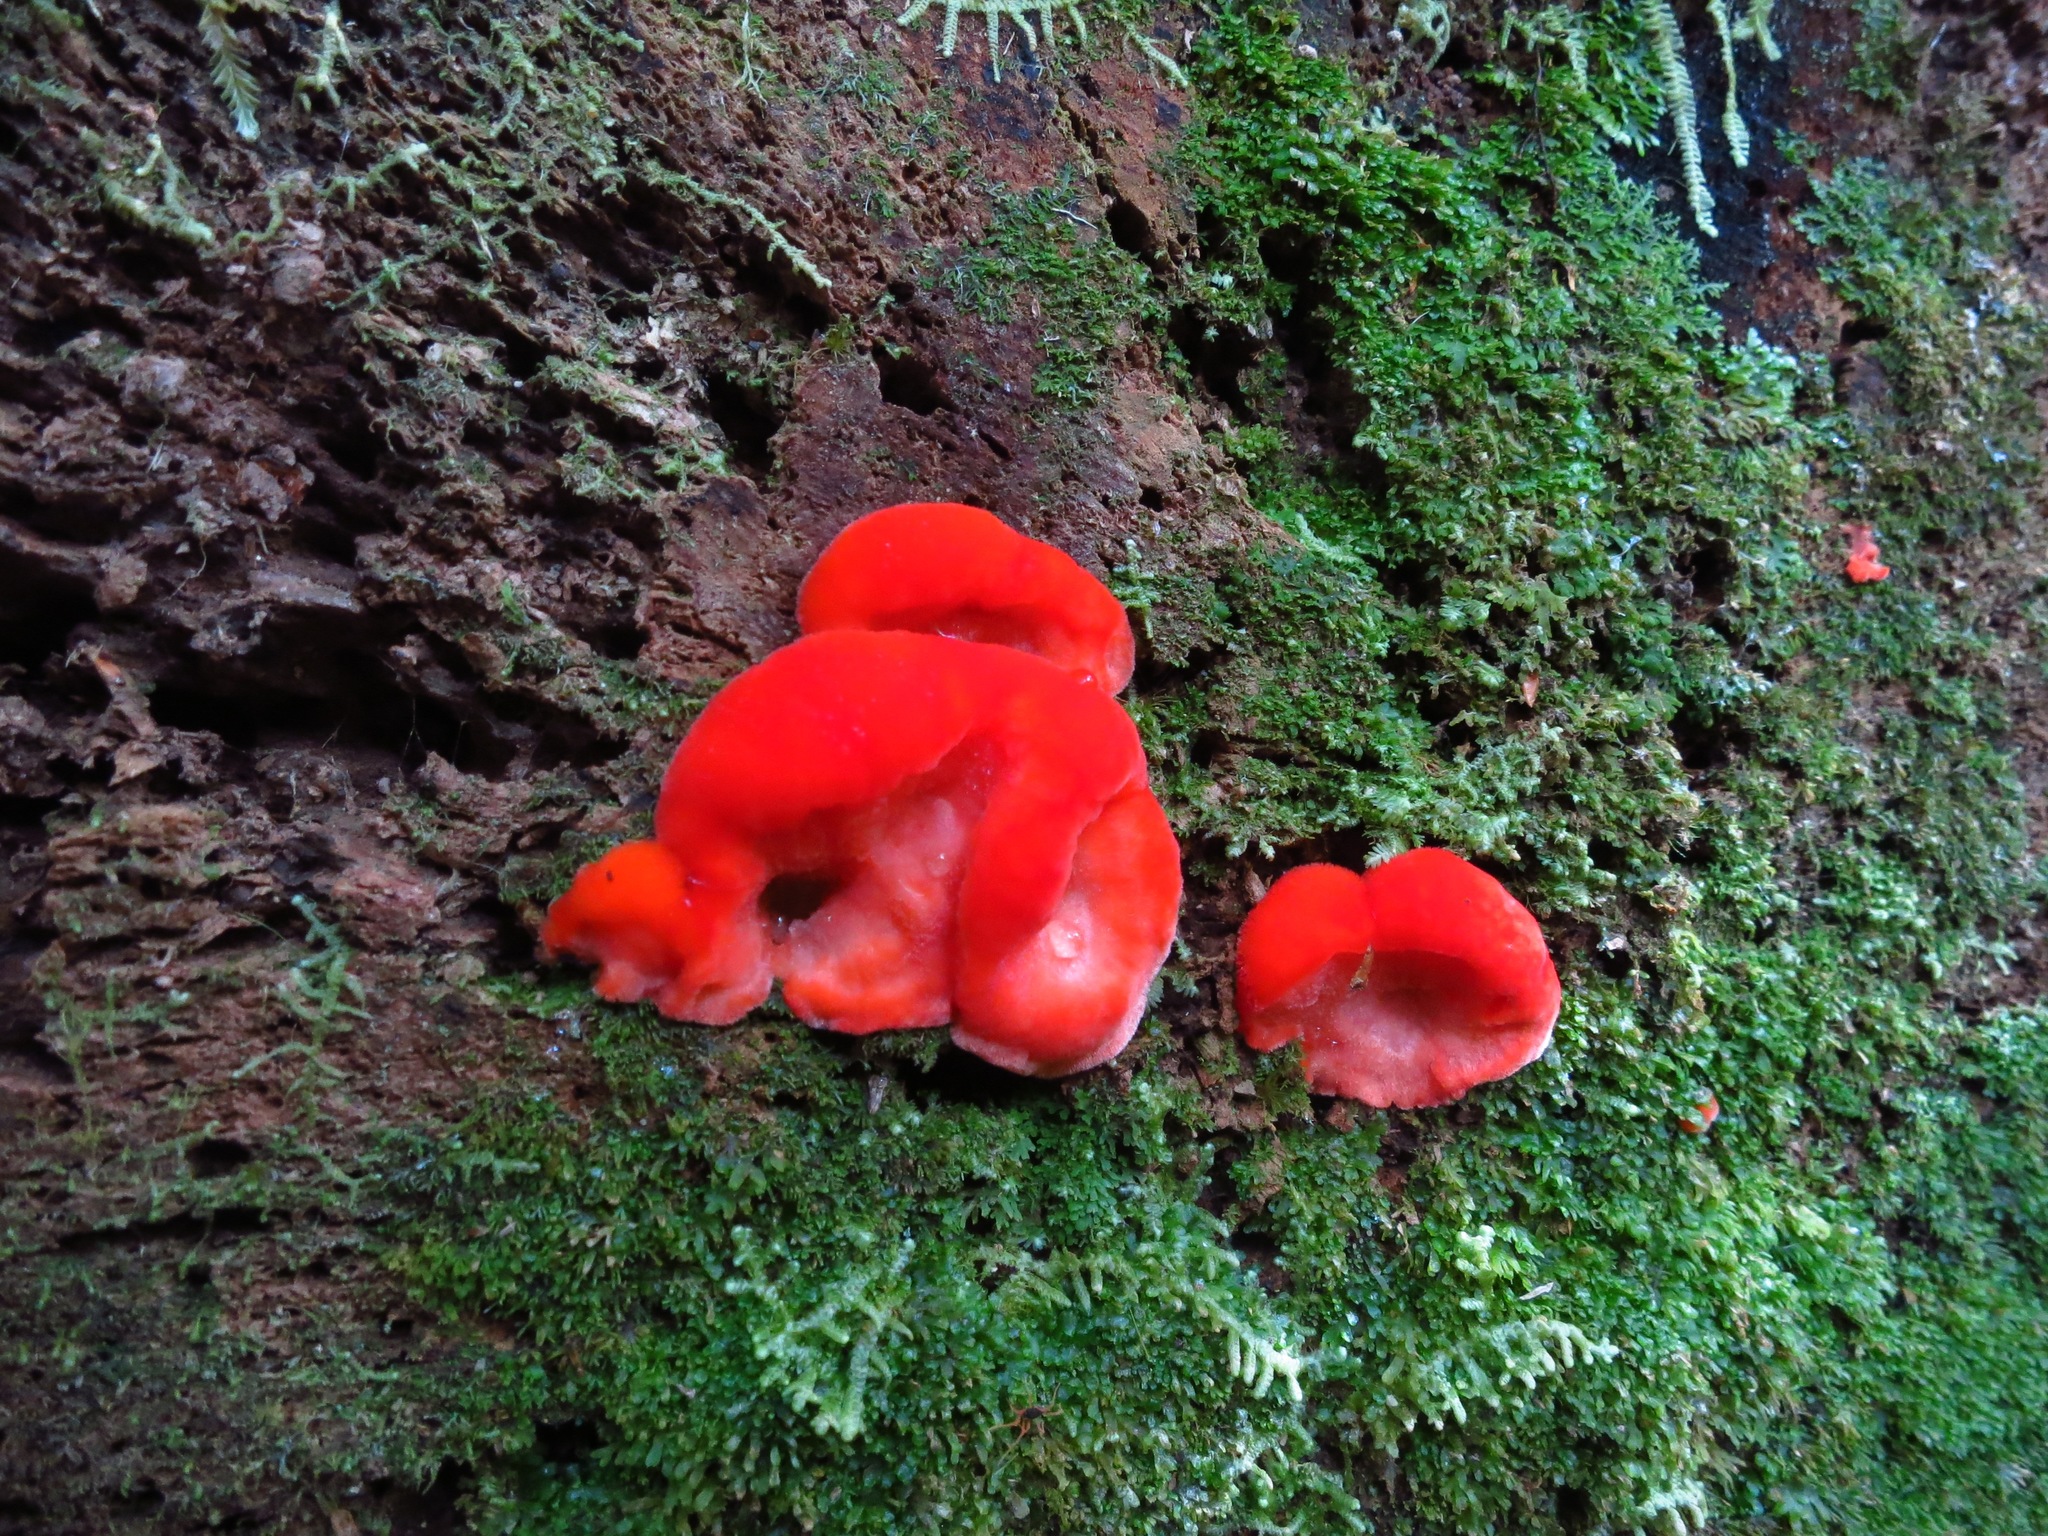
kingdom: Fungi
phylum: Basidiomycota
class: Agaricomycetes
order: Polyporales
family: Incrustoporiaceae
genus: Tyromyces
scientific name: Tyromyces pulcherrimus
